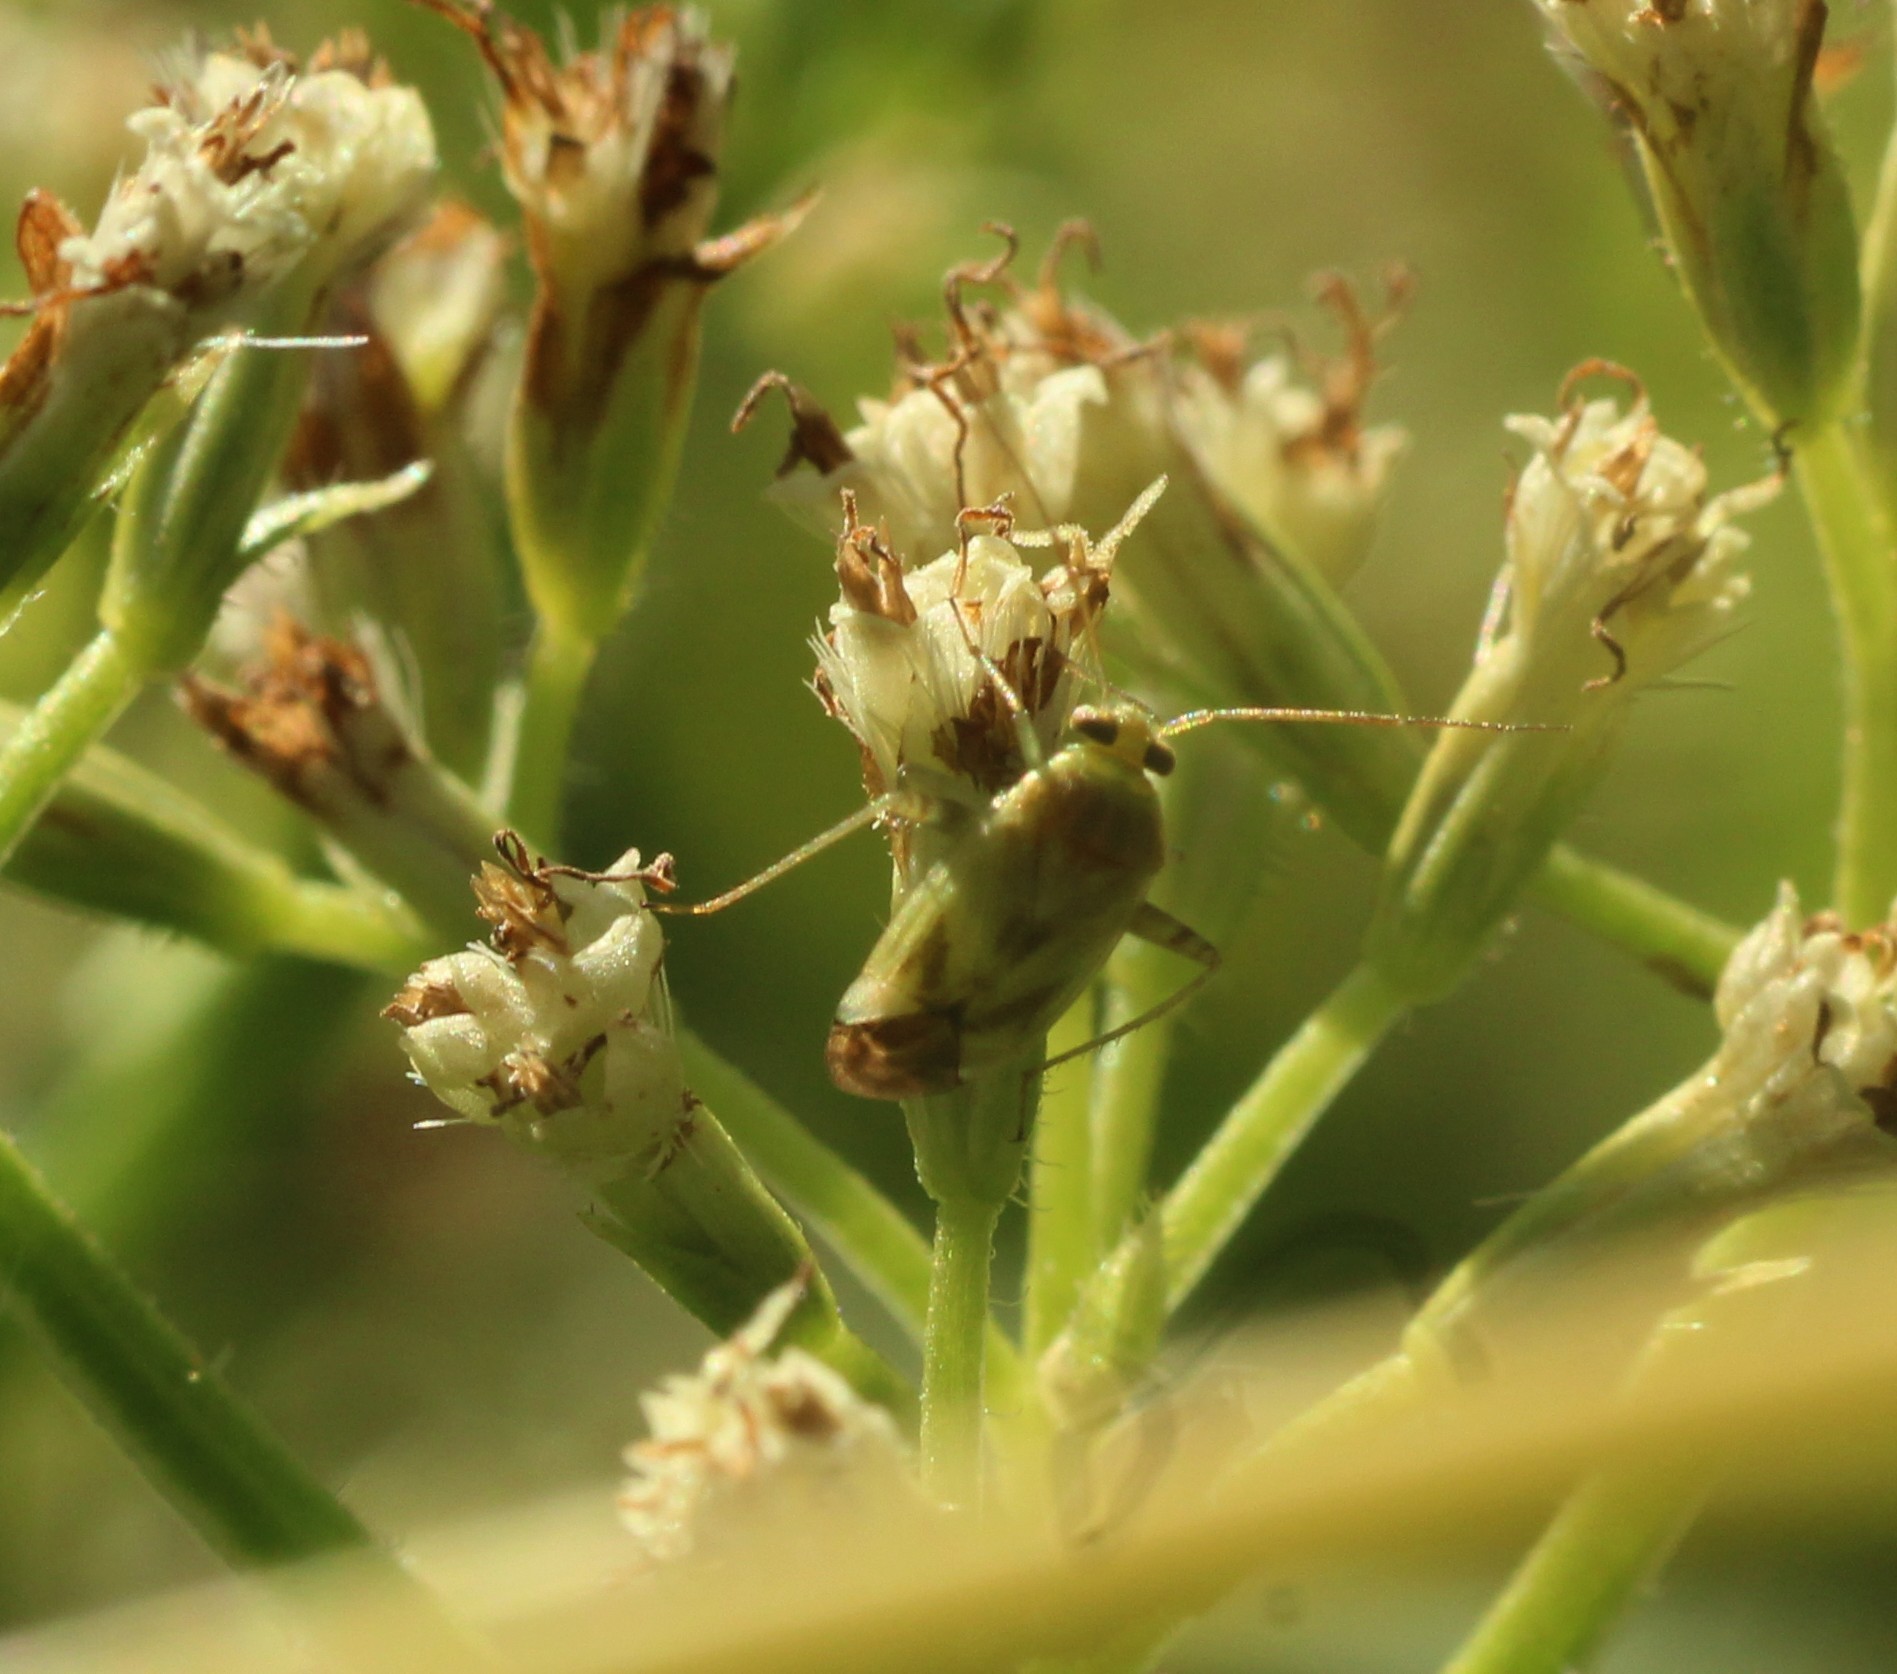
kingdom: Animalia
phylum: Arthropoda
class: Insecta
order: Hemiptera
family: Miridae
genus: Taylorilygus
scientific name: Taylorilygus apicalis
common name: Plant bug
